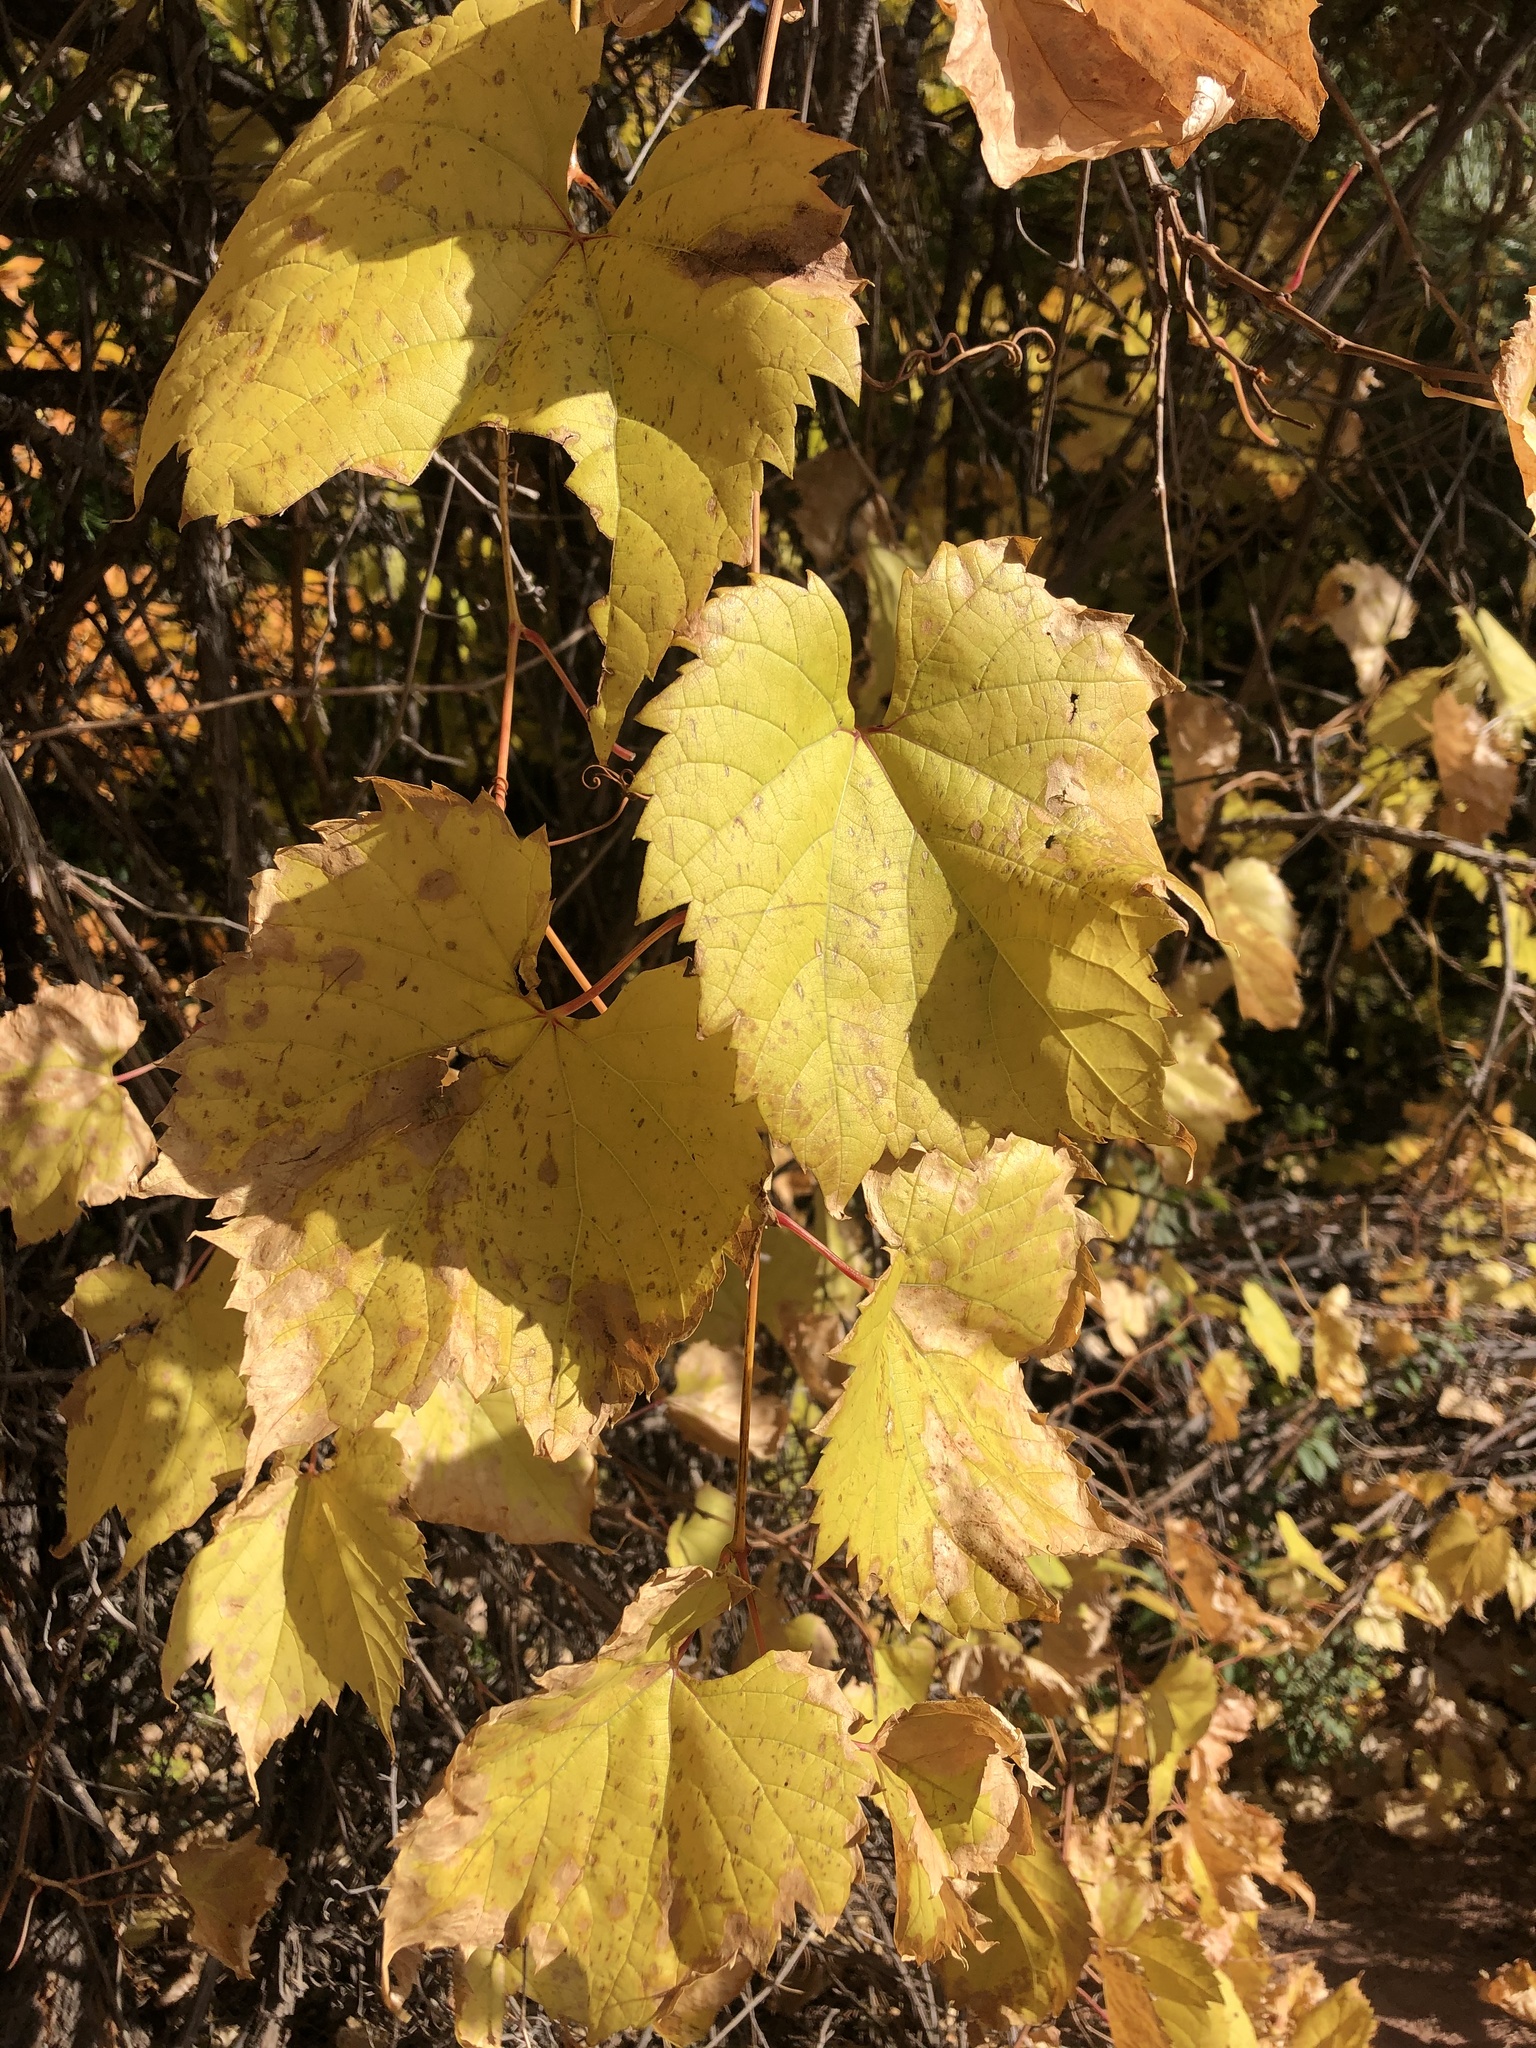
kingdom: Plantae
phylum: Tracheophyta
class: Magnoliopsida
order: Vitales
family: Vitaceae
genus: Vitis
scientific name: Vitis riparia
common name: Frost grape
